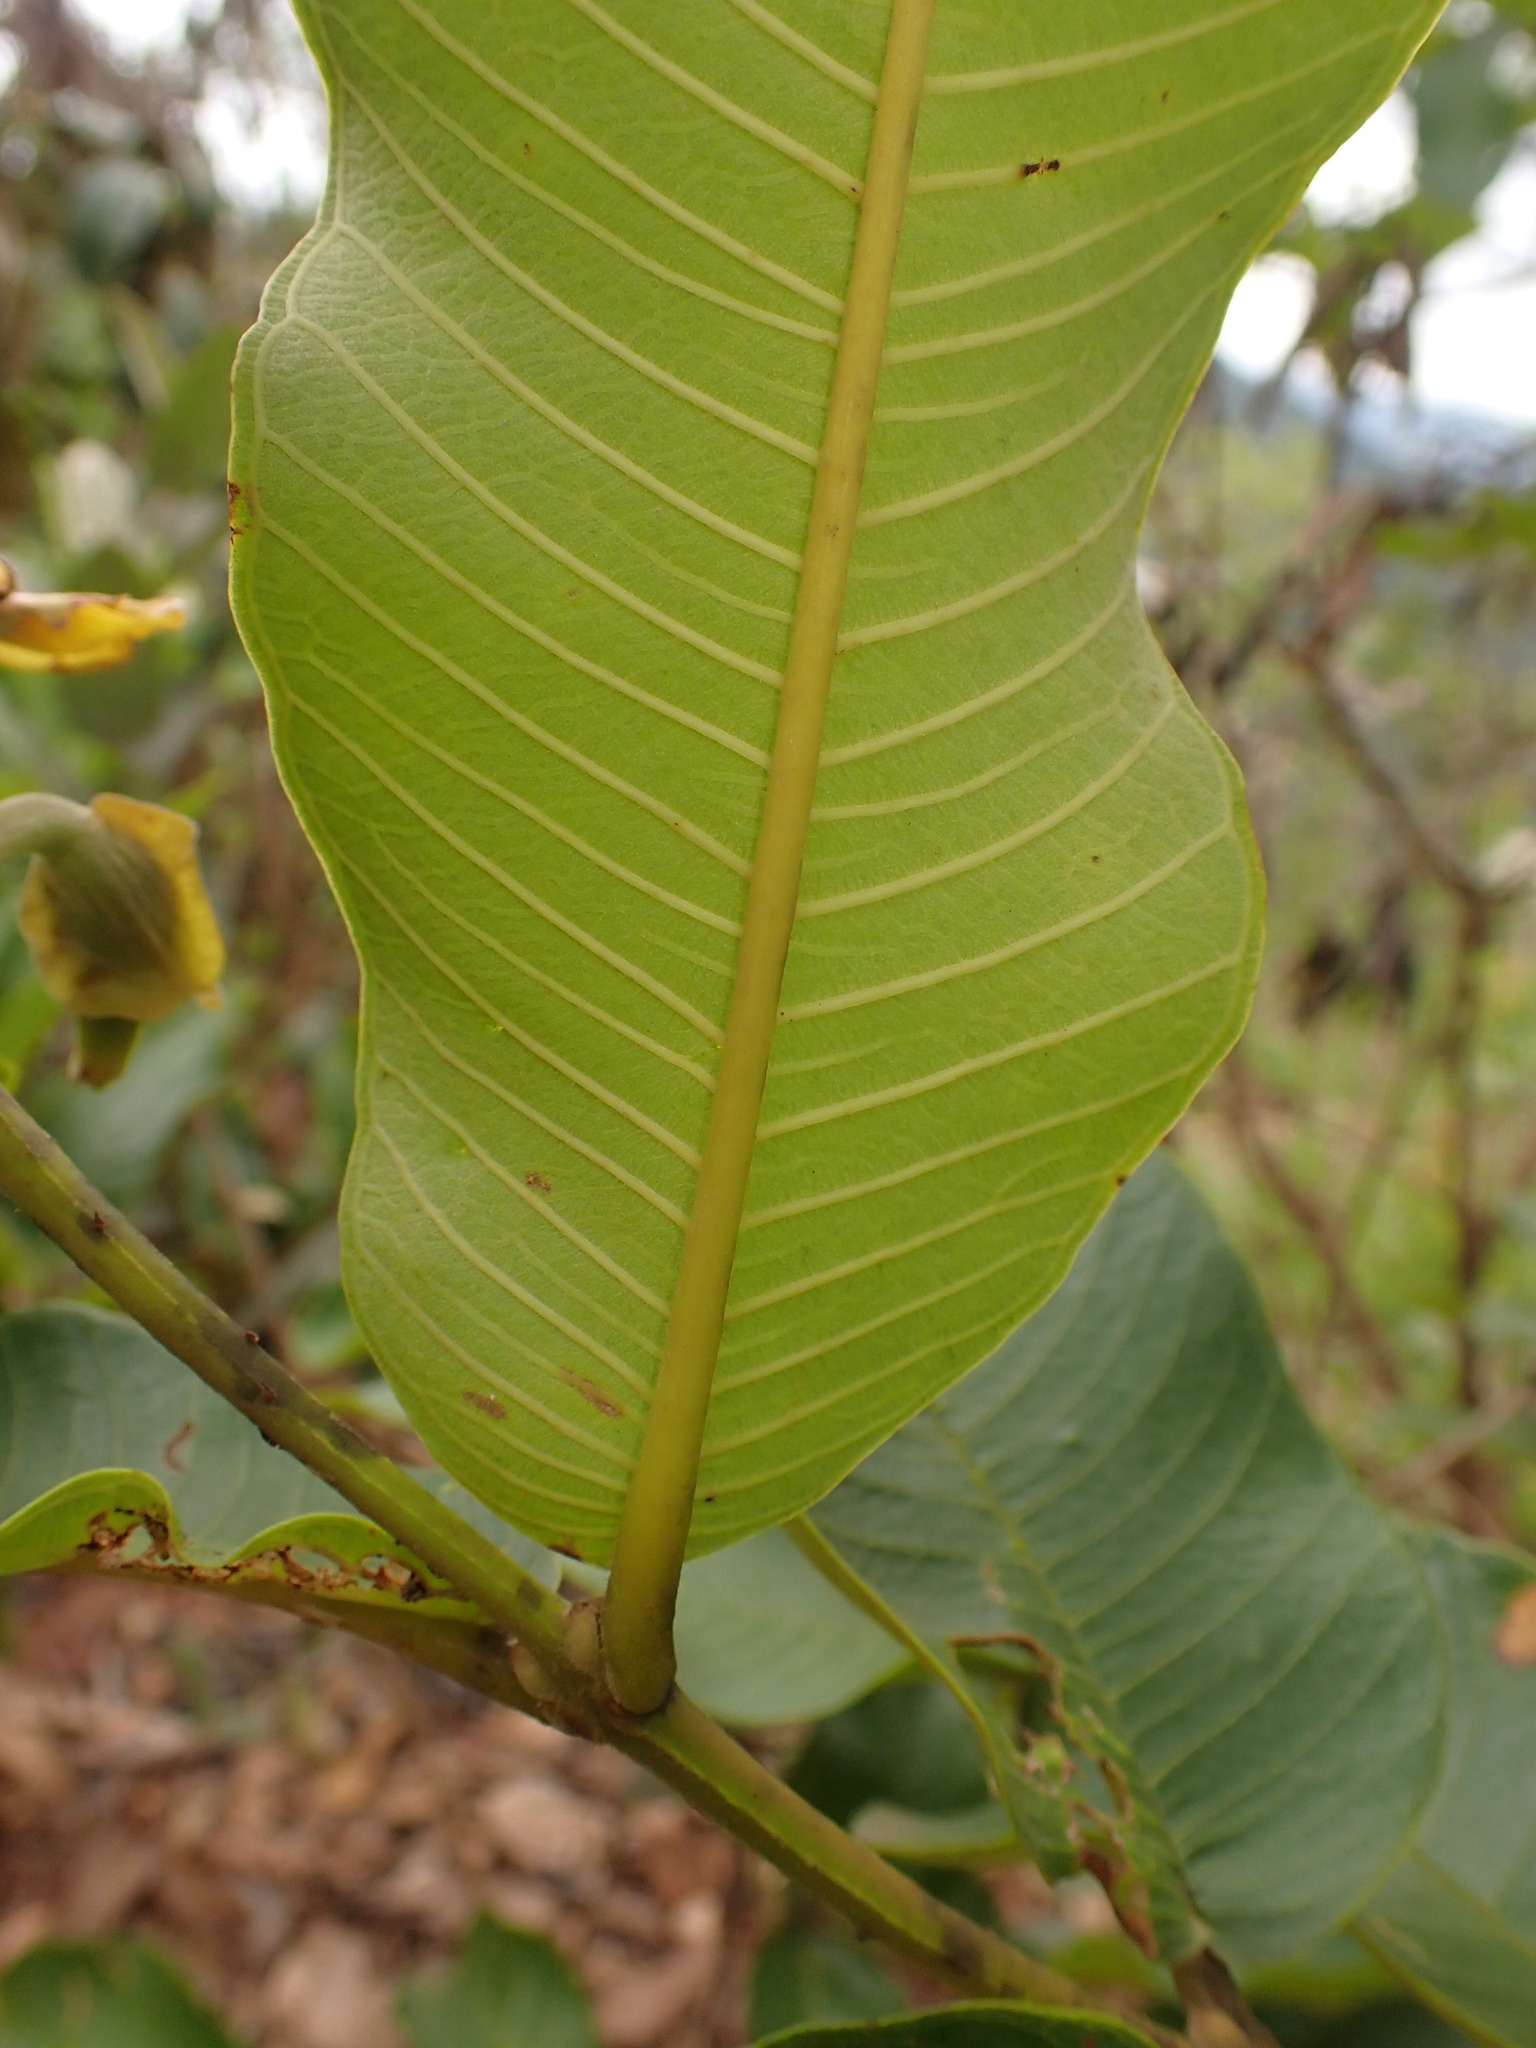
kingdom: Plantae
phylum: Tracheophyta
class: Magnoliopsida
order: Myrtales
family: Vochysiaceae
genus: Qualea
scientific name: Qualea grandiflora
